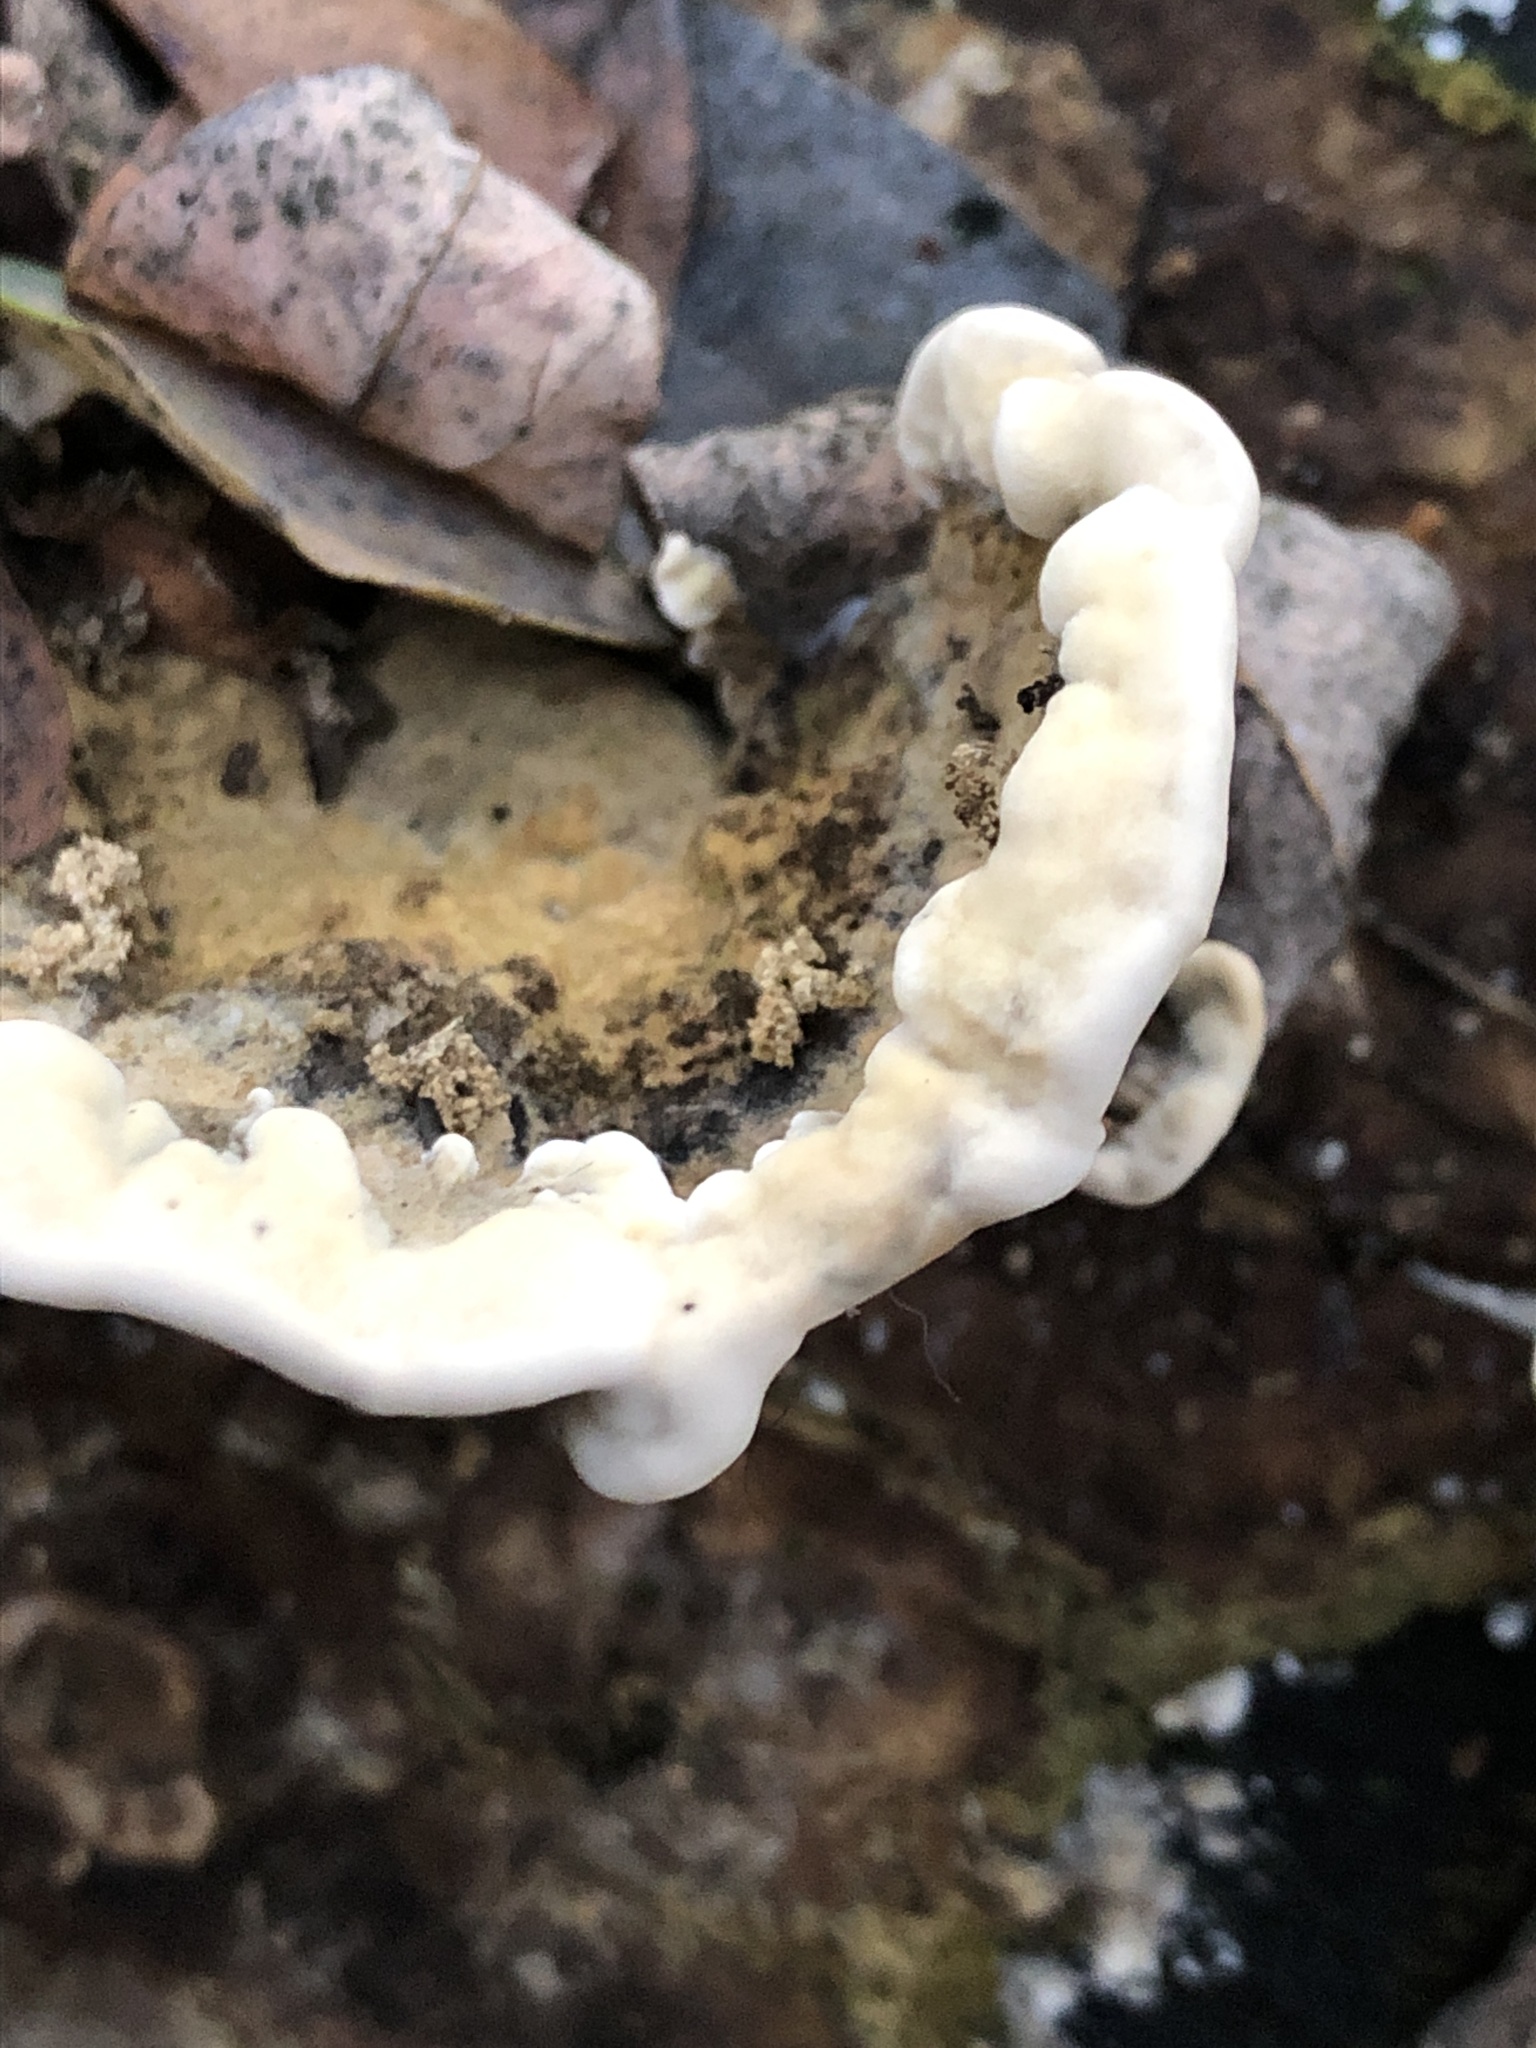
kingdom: Fungi
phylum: Basidiomycota
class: Agaricomycetes
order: Polyporales
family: Phanerochaetaceae
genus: Bjerkandera
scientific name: Bjerkandera adusta
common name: Smoky bracket
